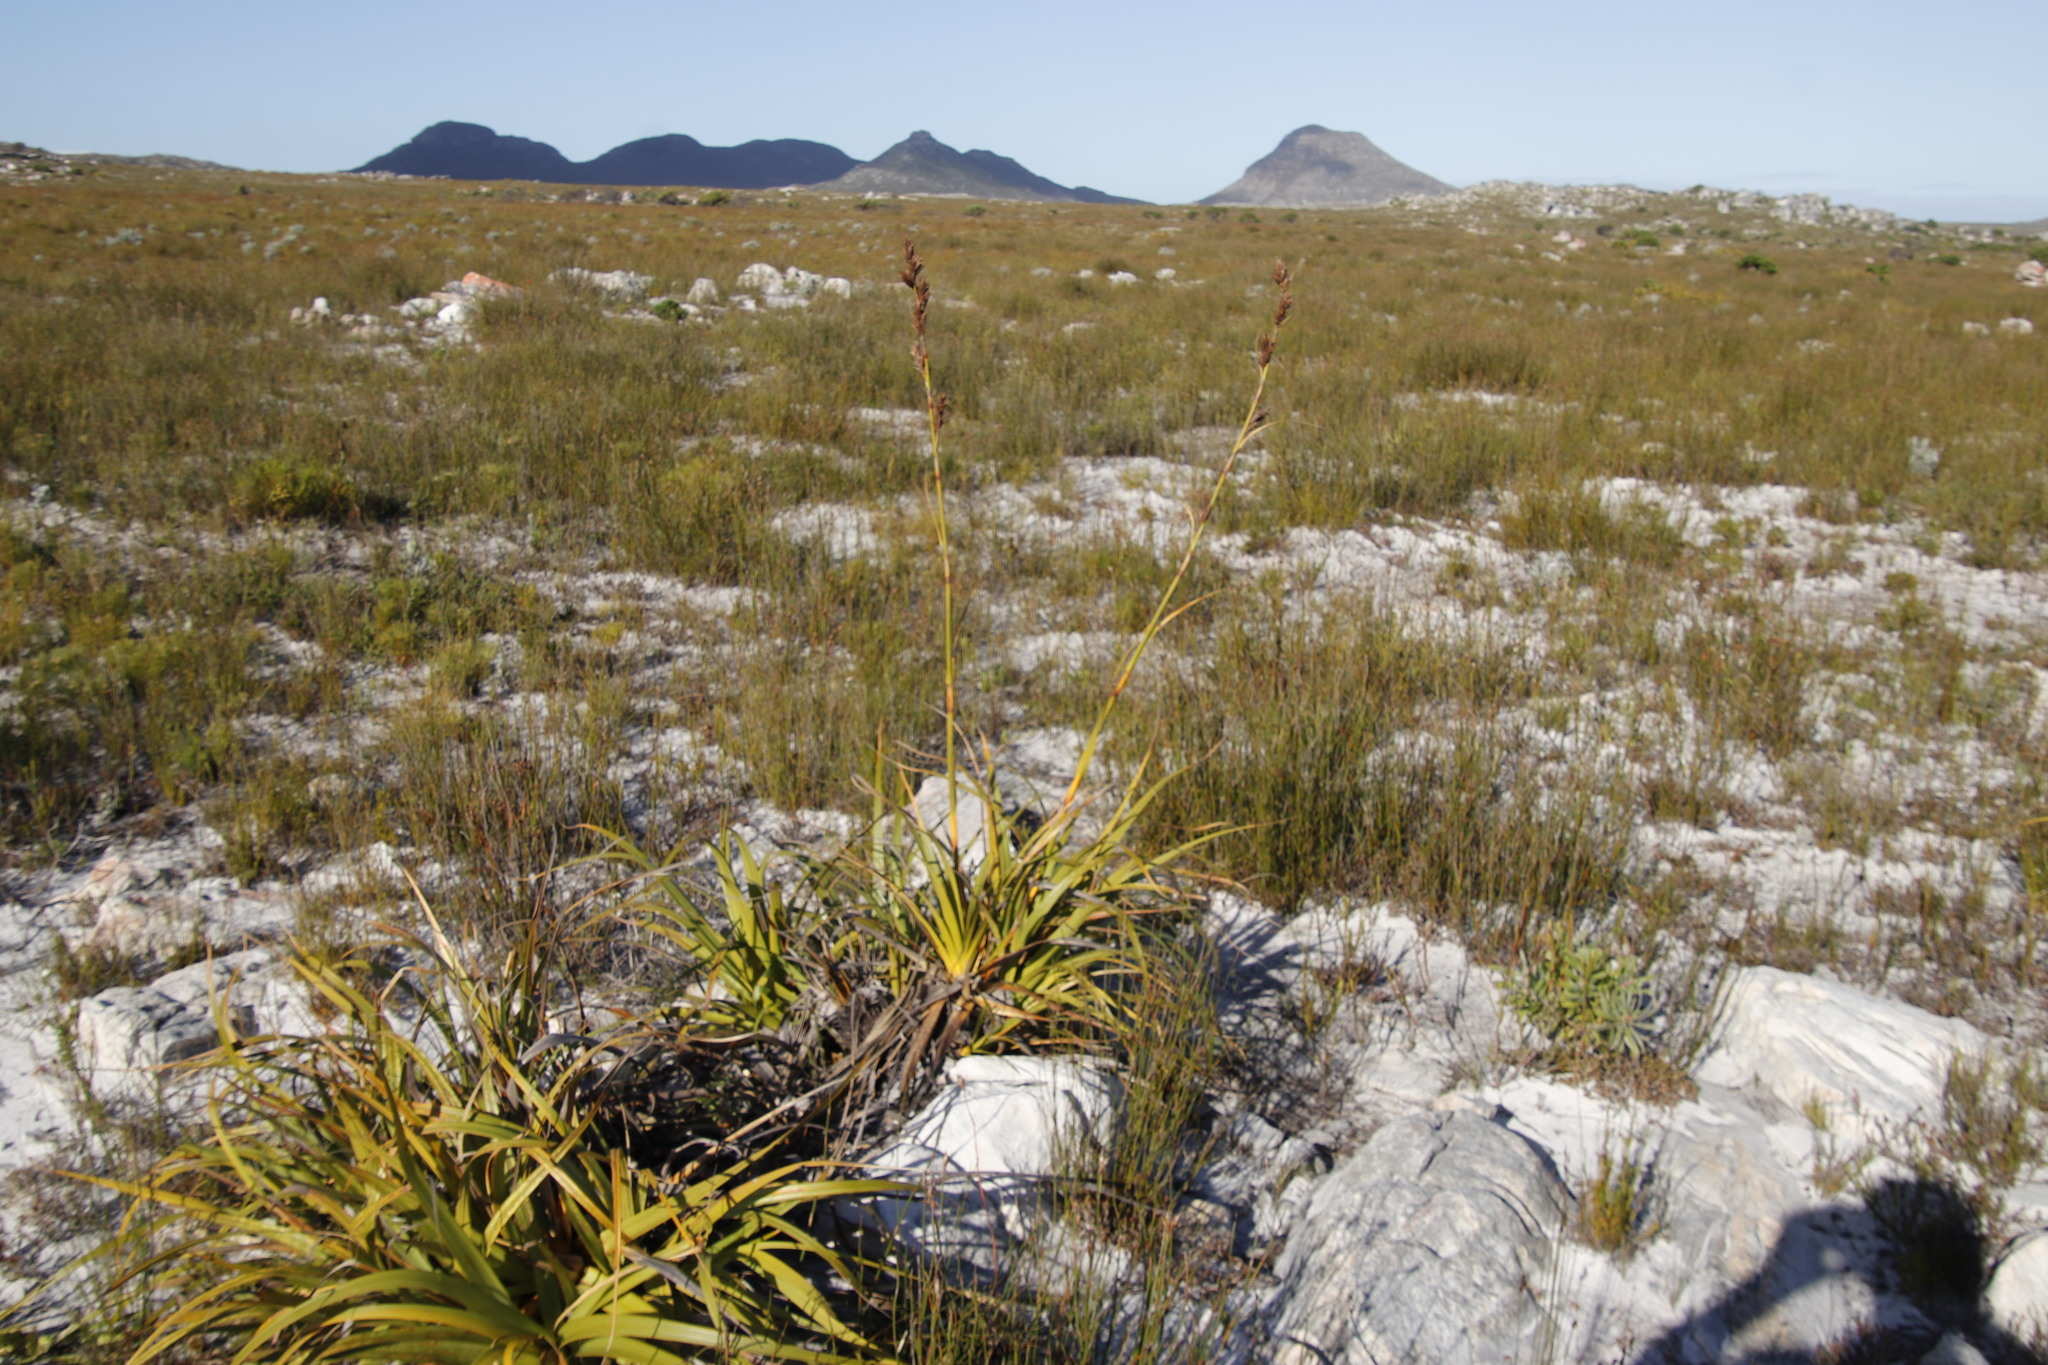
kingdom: Plantae
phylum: Tracheophyta
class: Liliopsida
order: Poales
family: Cyperaceae
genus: Tetraria
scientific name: Tetraria thermalis
